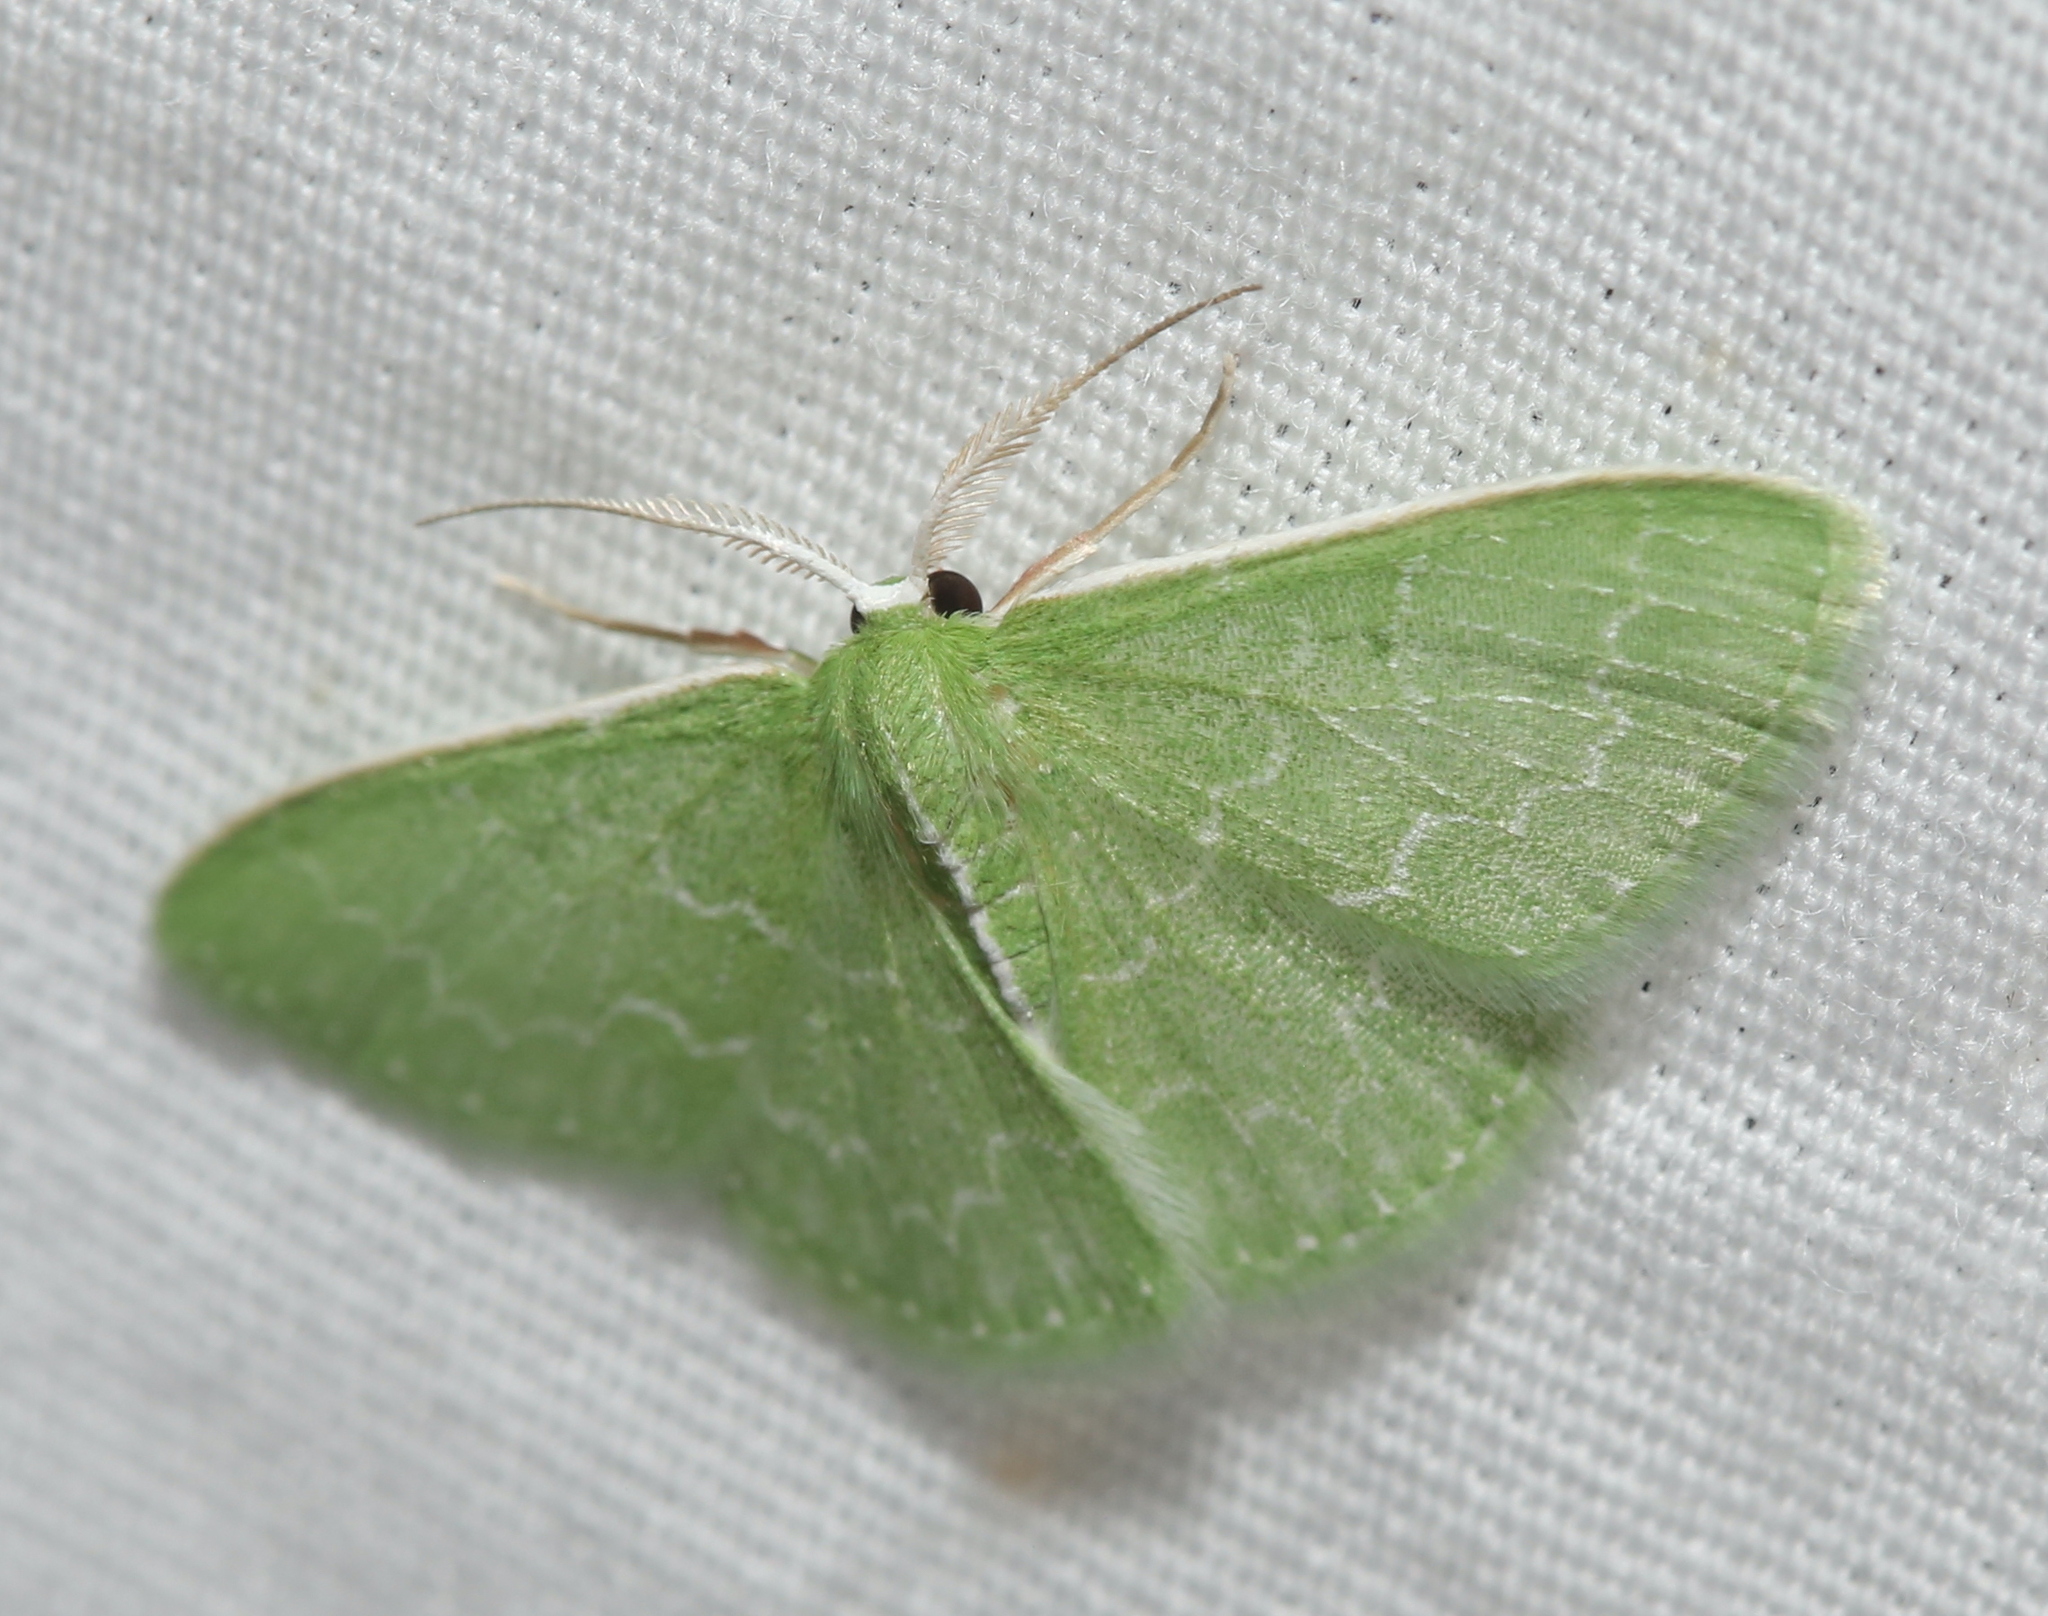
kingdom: Animalia
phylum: Arthropoda
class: Insecta
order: Lepidoptera
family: Geometridae
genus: Synchlora
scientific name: Synchlora frondaria
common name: Southern emerald
